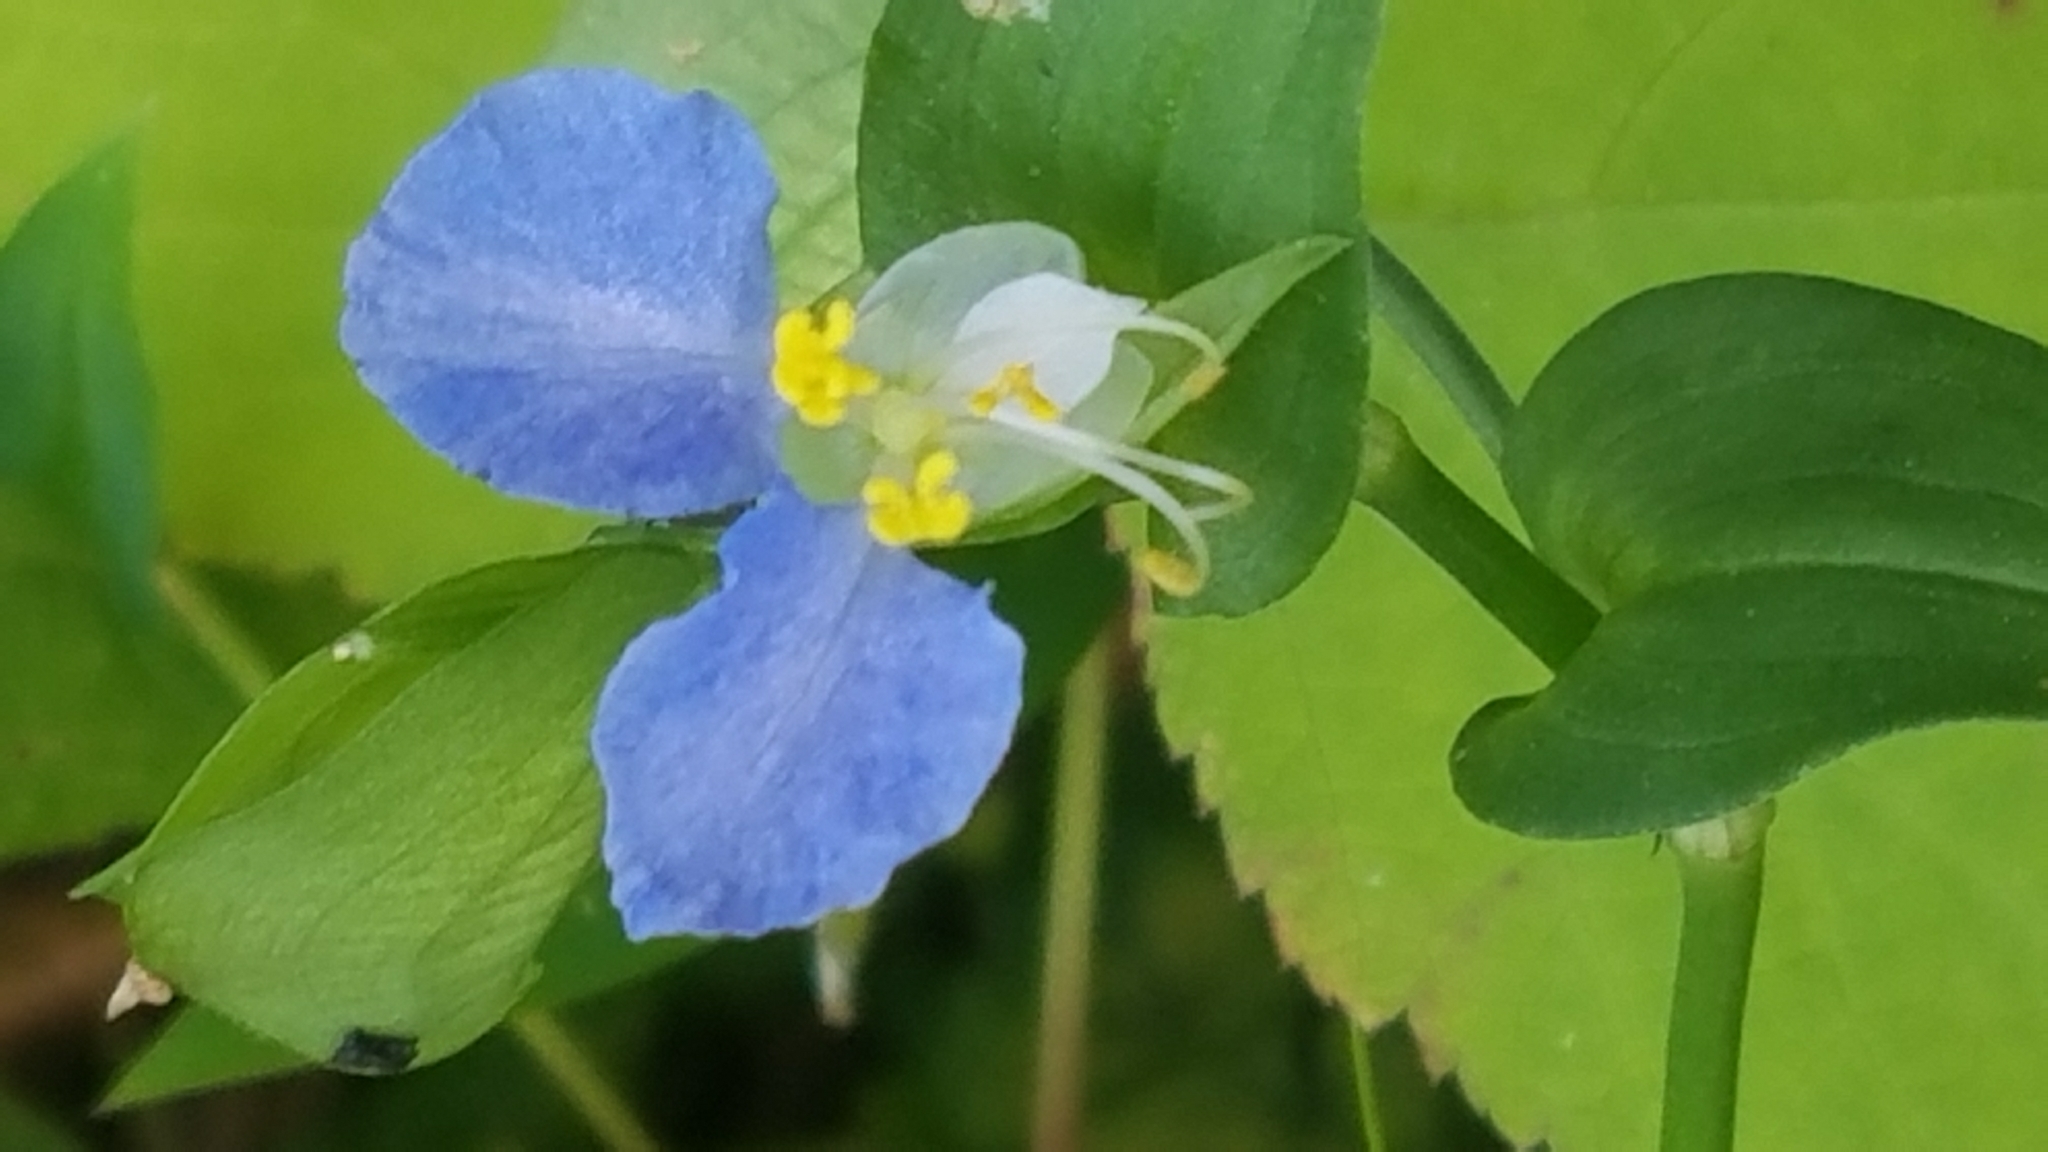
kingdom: Plantae
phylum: Tracheophyta
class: Liliopsida
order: Commelinales
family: Commelinaceae
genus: Commelina
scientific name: Commelina communis
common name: Asiatic dayflower
